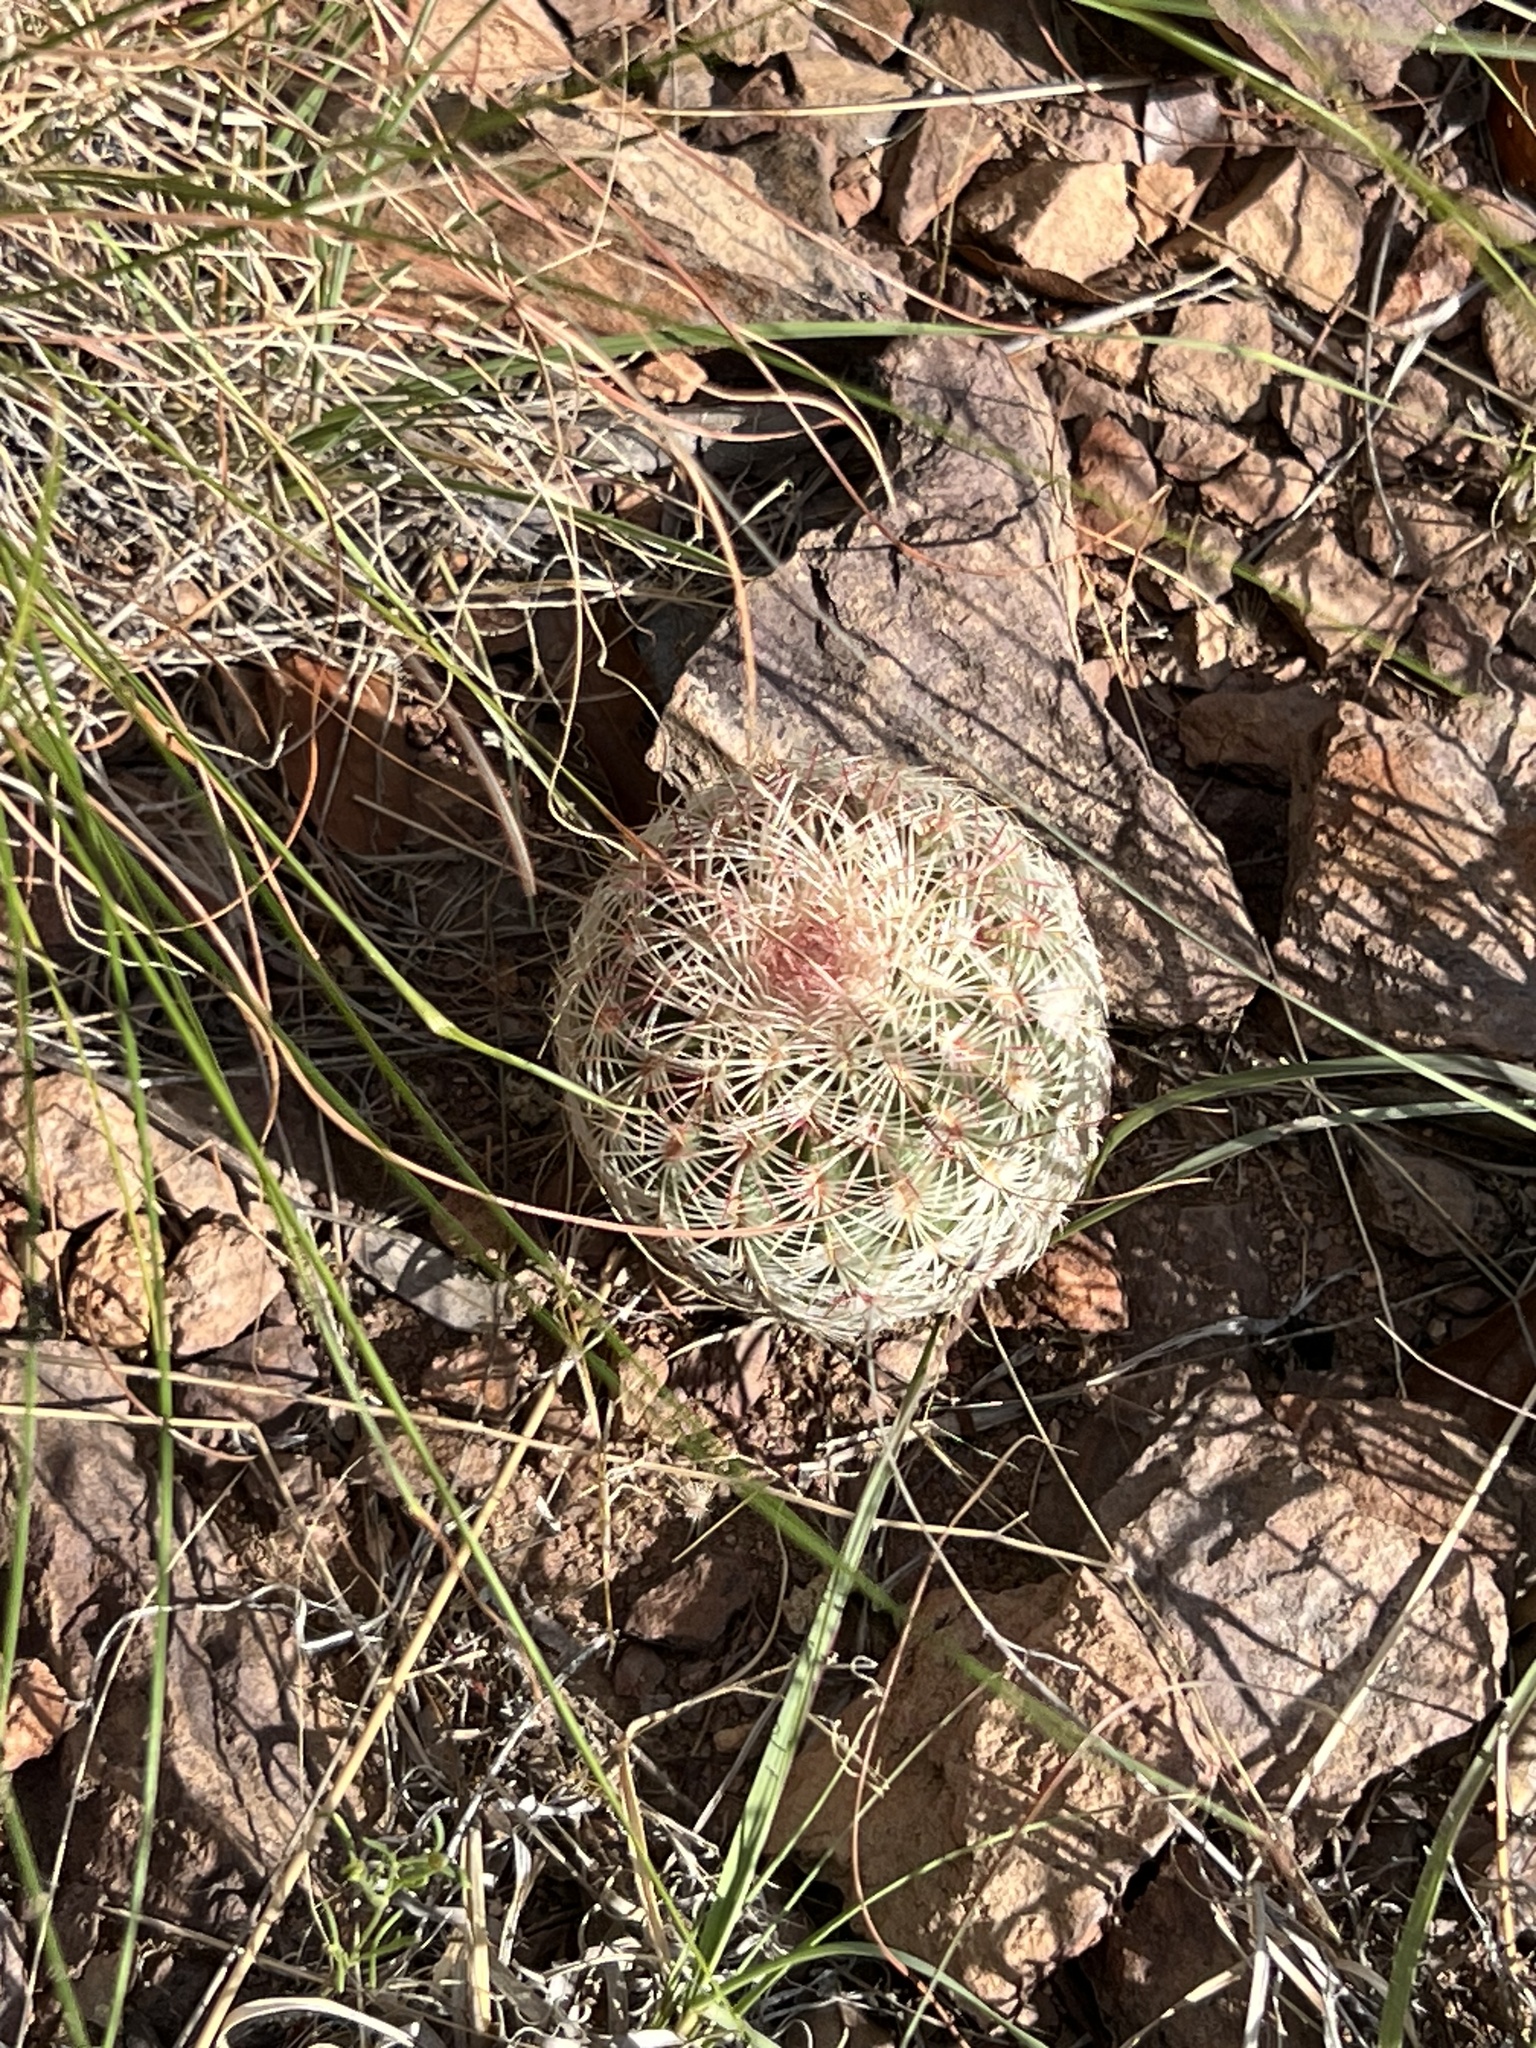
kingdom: Plantae
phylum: Tracheophyta
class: Magnoliopsida
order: Caryophyllales
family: Cactaceae
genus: Echinocereus
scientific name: Echinocereus rigidissimus
